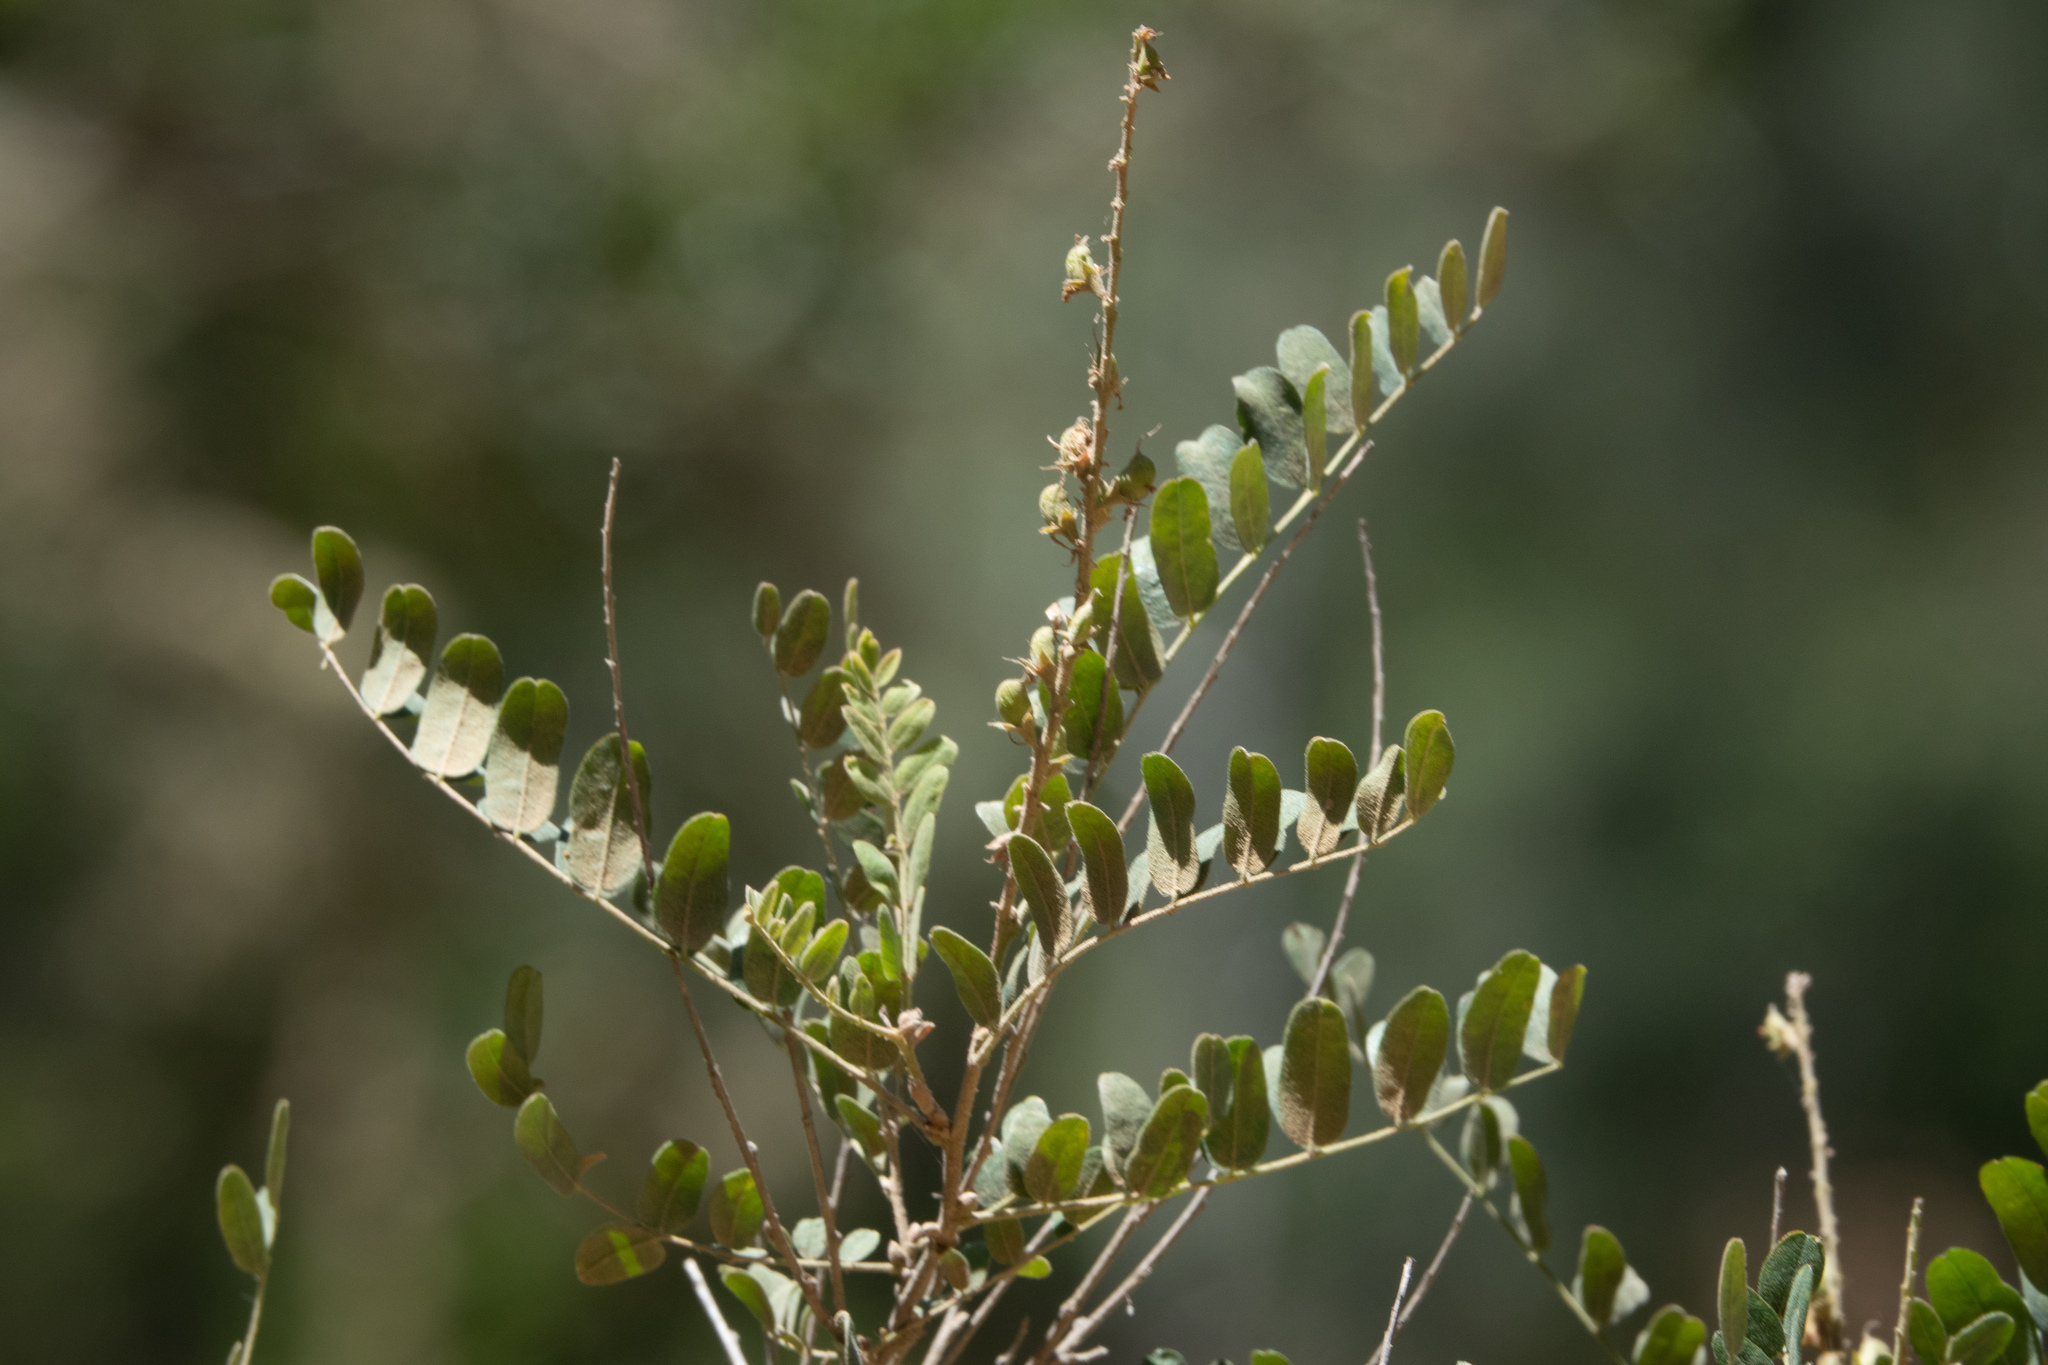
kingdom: Plantae
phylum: Tracheophyta
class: Magnoliopsida
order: Fabales
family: Fabaceae
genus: Amorpha
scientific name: Amorpha californica
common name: California indigobush
